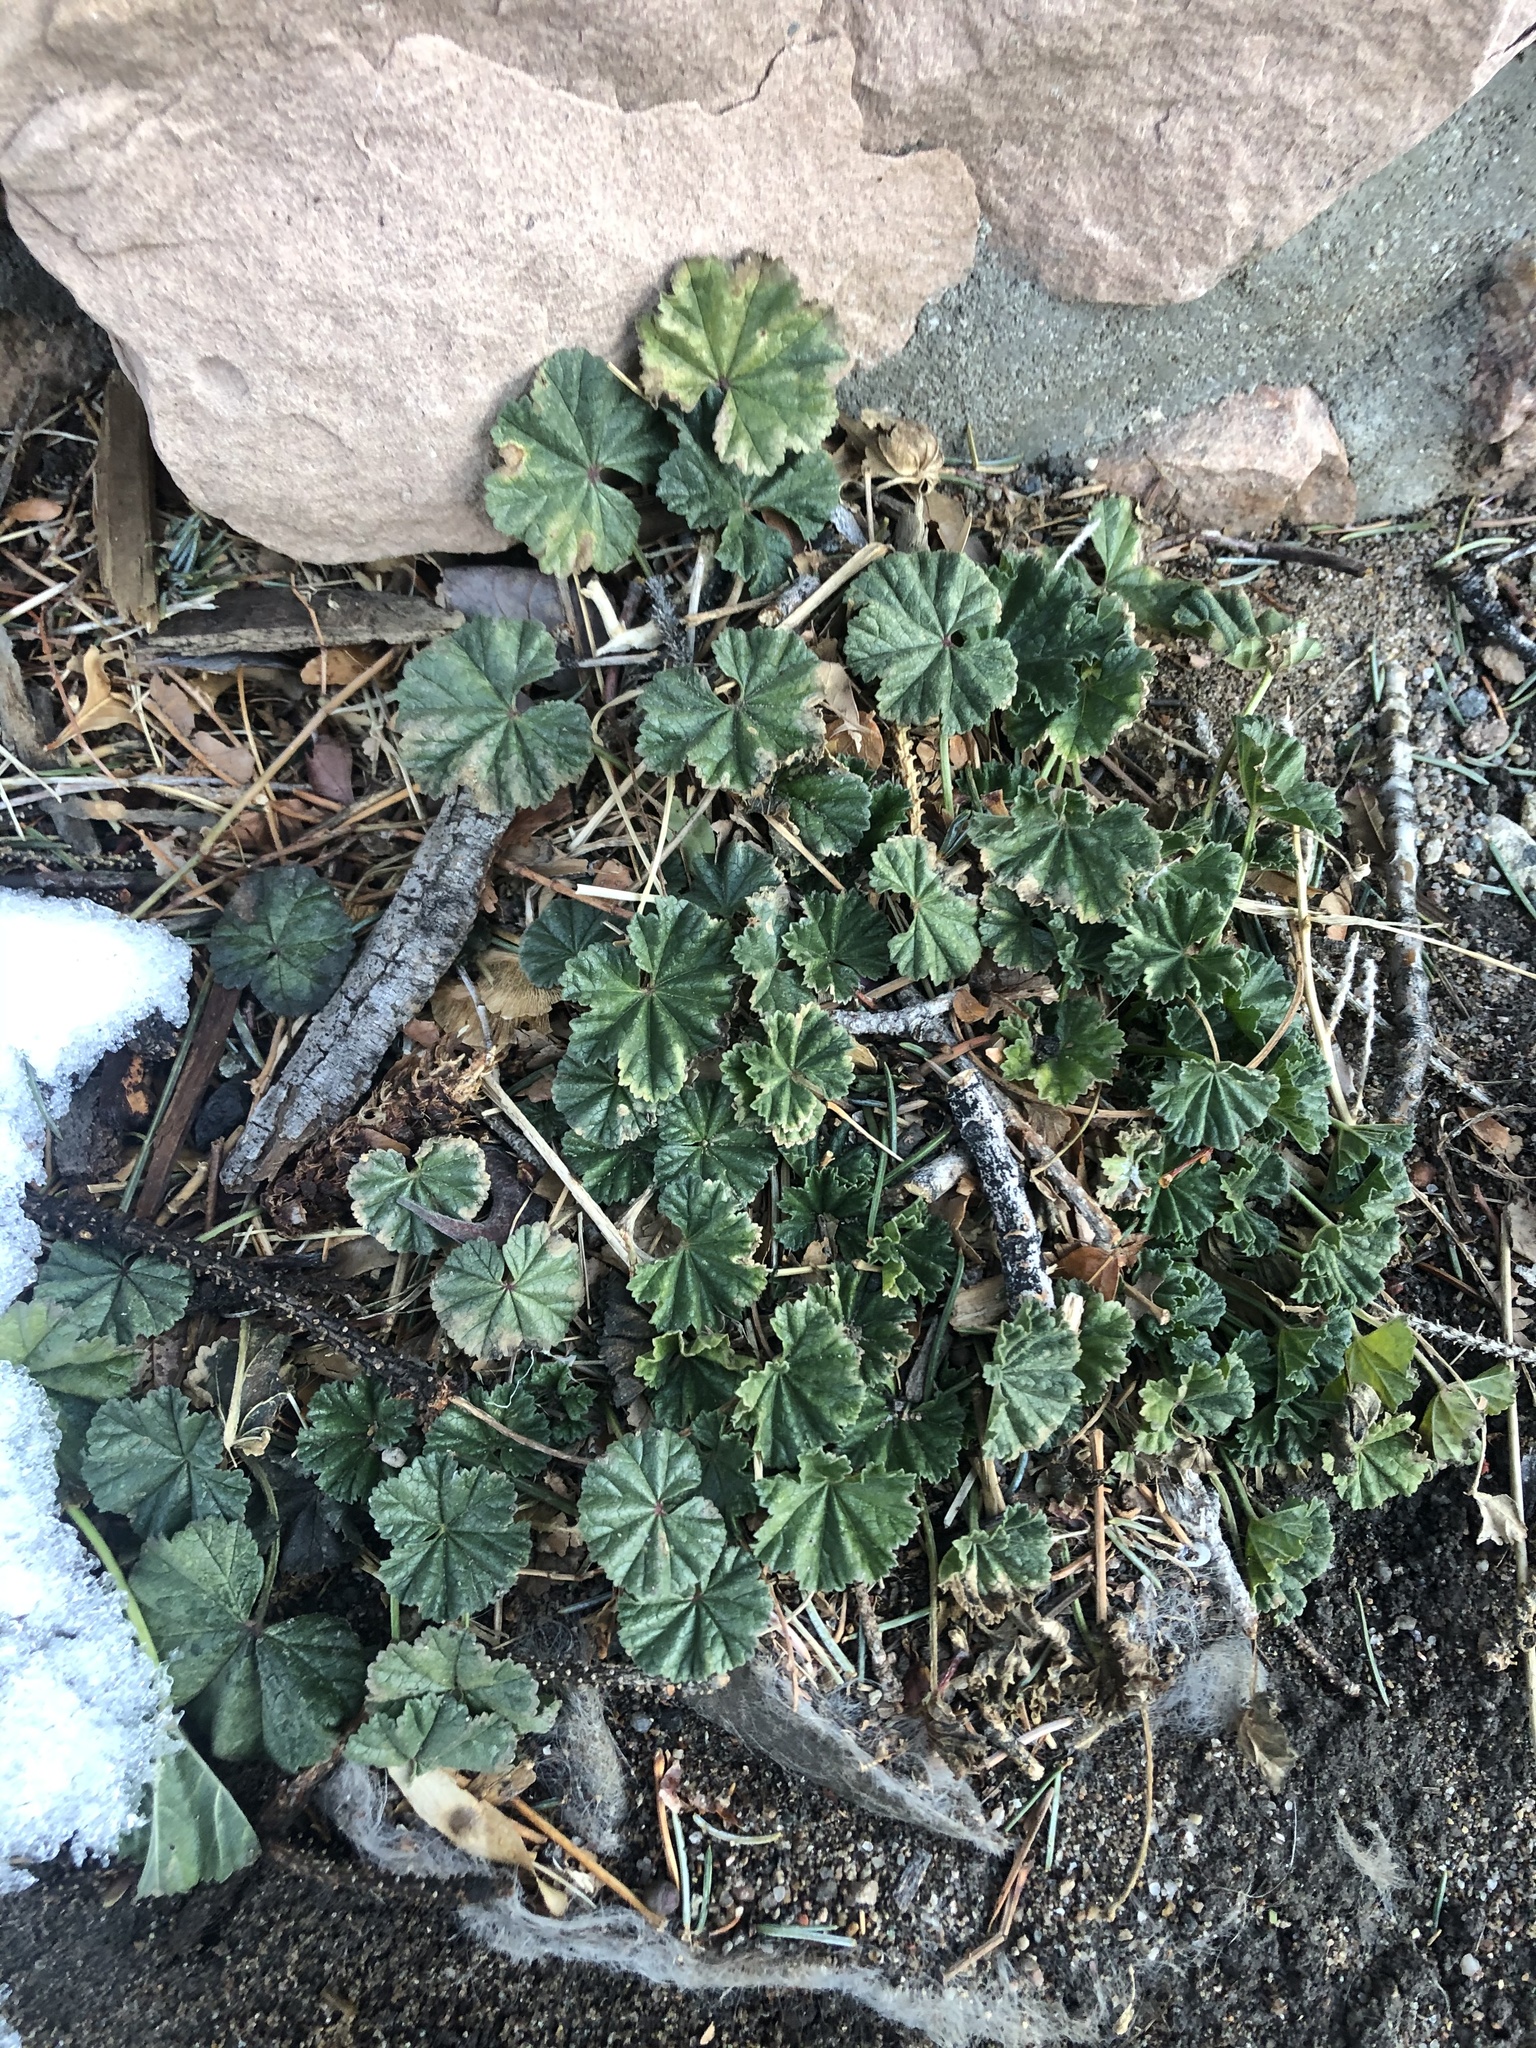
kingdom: Plantae
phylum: Tracheophyta
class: Magnoliopsida
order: Malvales
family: Malvaceae
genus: Malva
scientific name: Malva neglecta
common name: Common mallow
